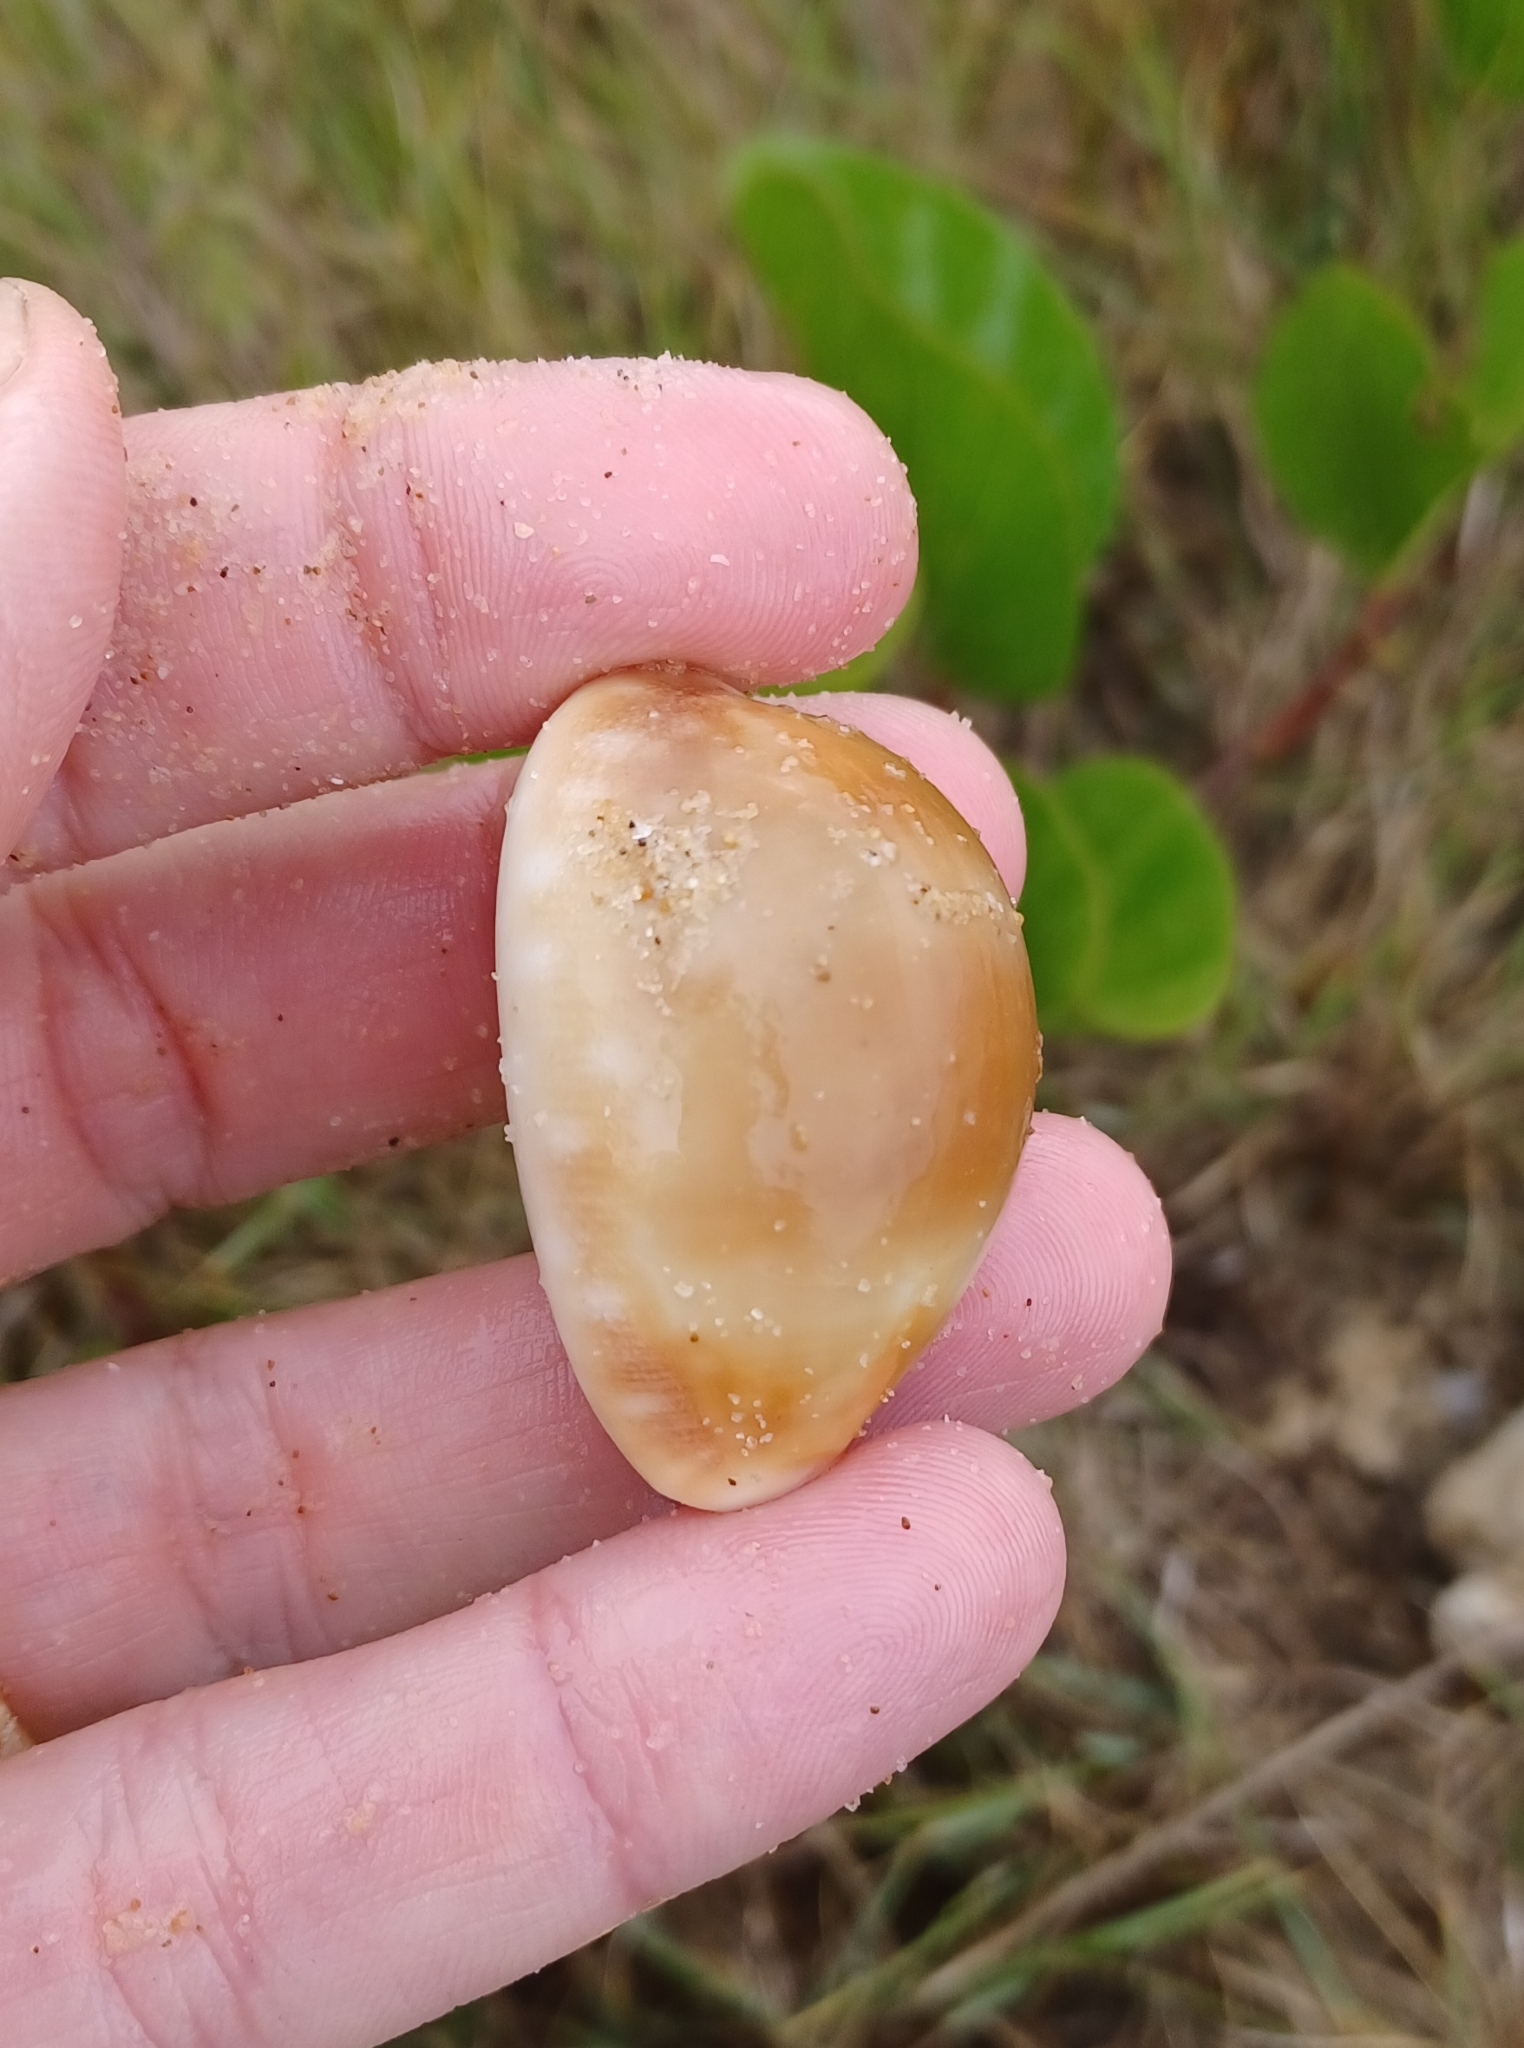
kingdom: Animalia
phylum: Mollusca
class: Gastropoda
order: Littorinimorpha
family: Cypraeidae
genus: Lyncina
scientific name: Lyncina vitellus
